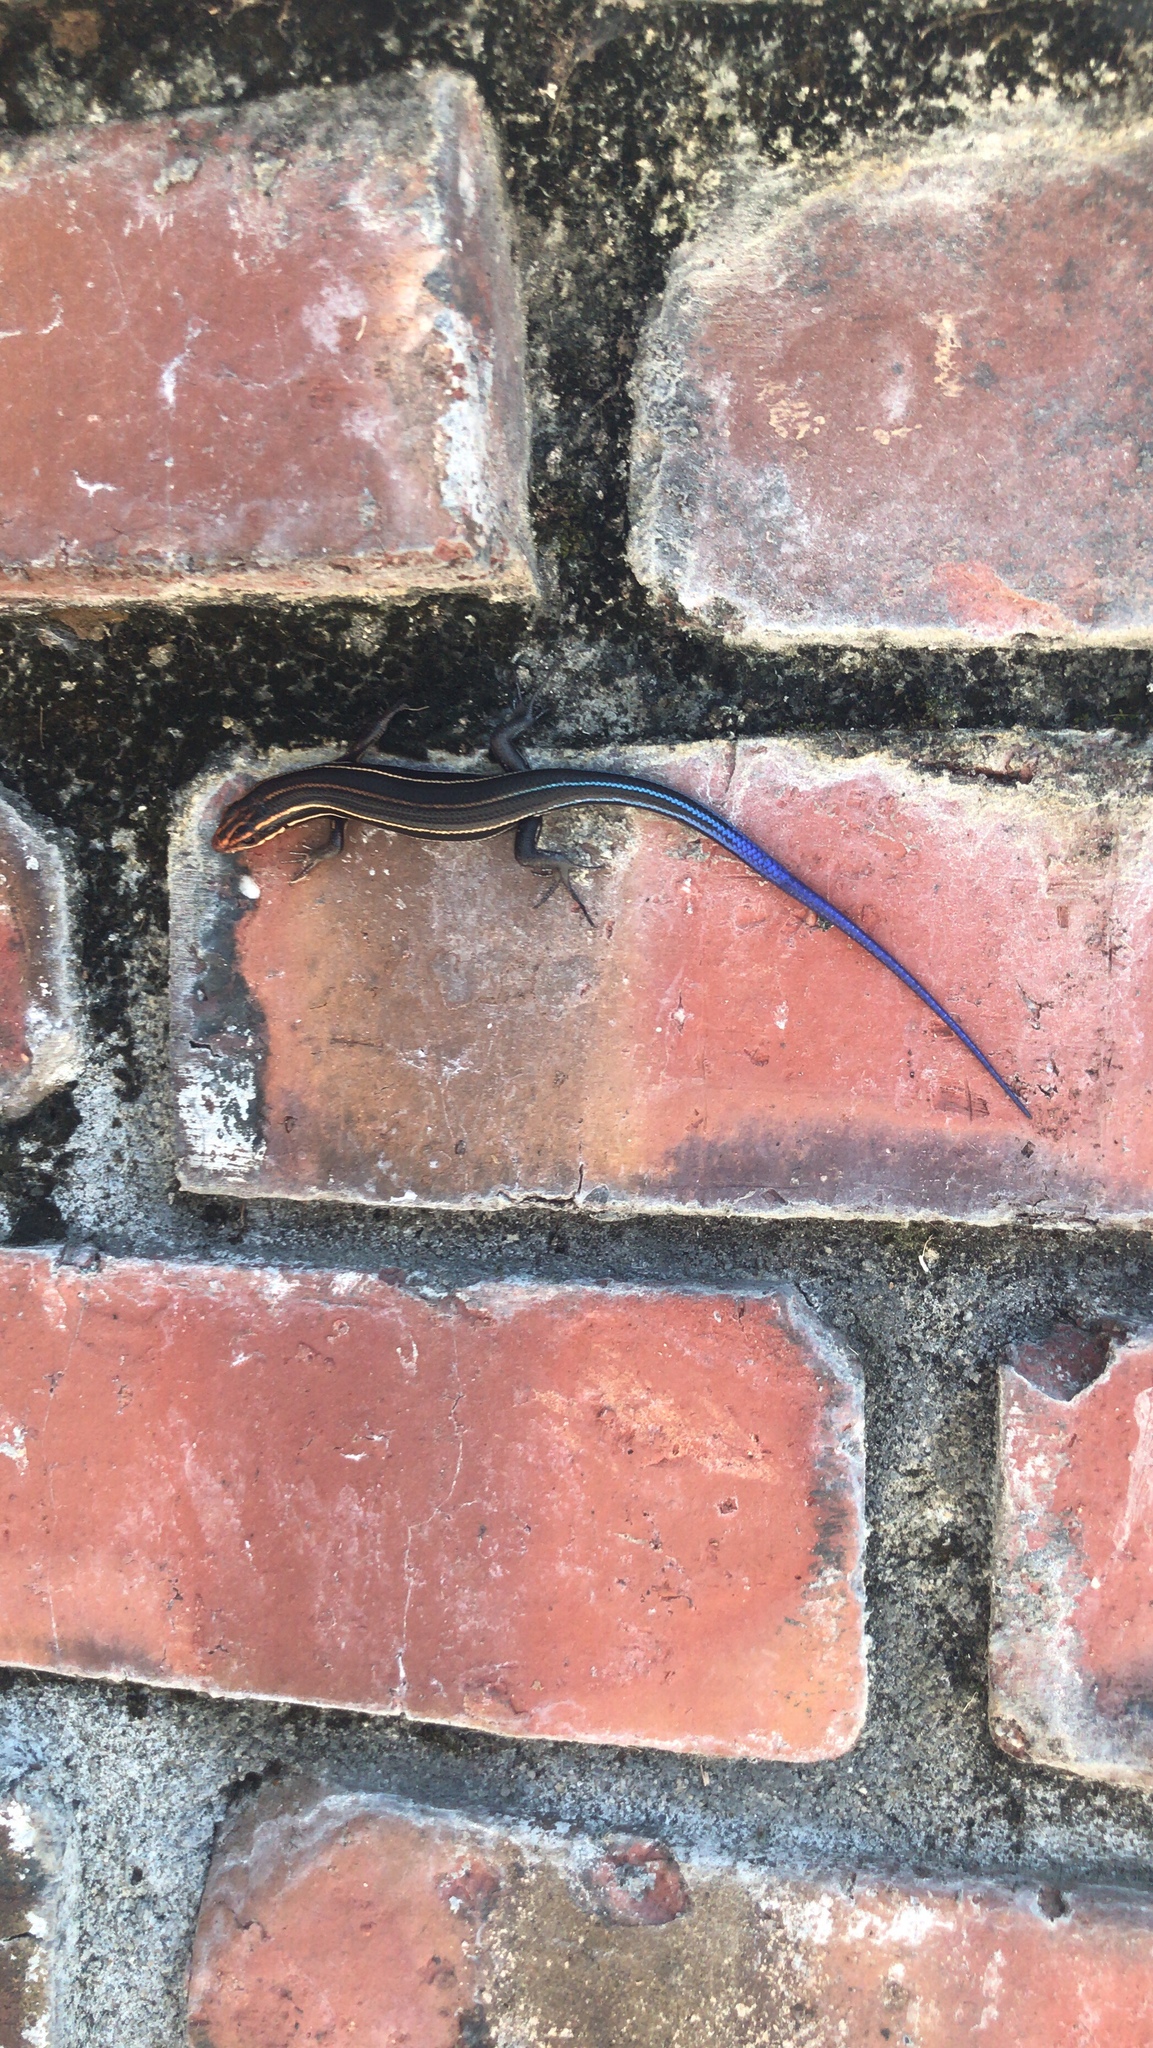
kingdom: Animalia
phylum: Chordata
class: Squamata
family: Scincidae
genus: Plestiodon
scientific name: Plestiodon inexpectatus
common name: Southeastern five-lined skink
